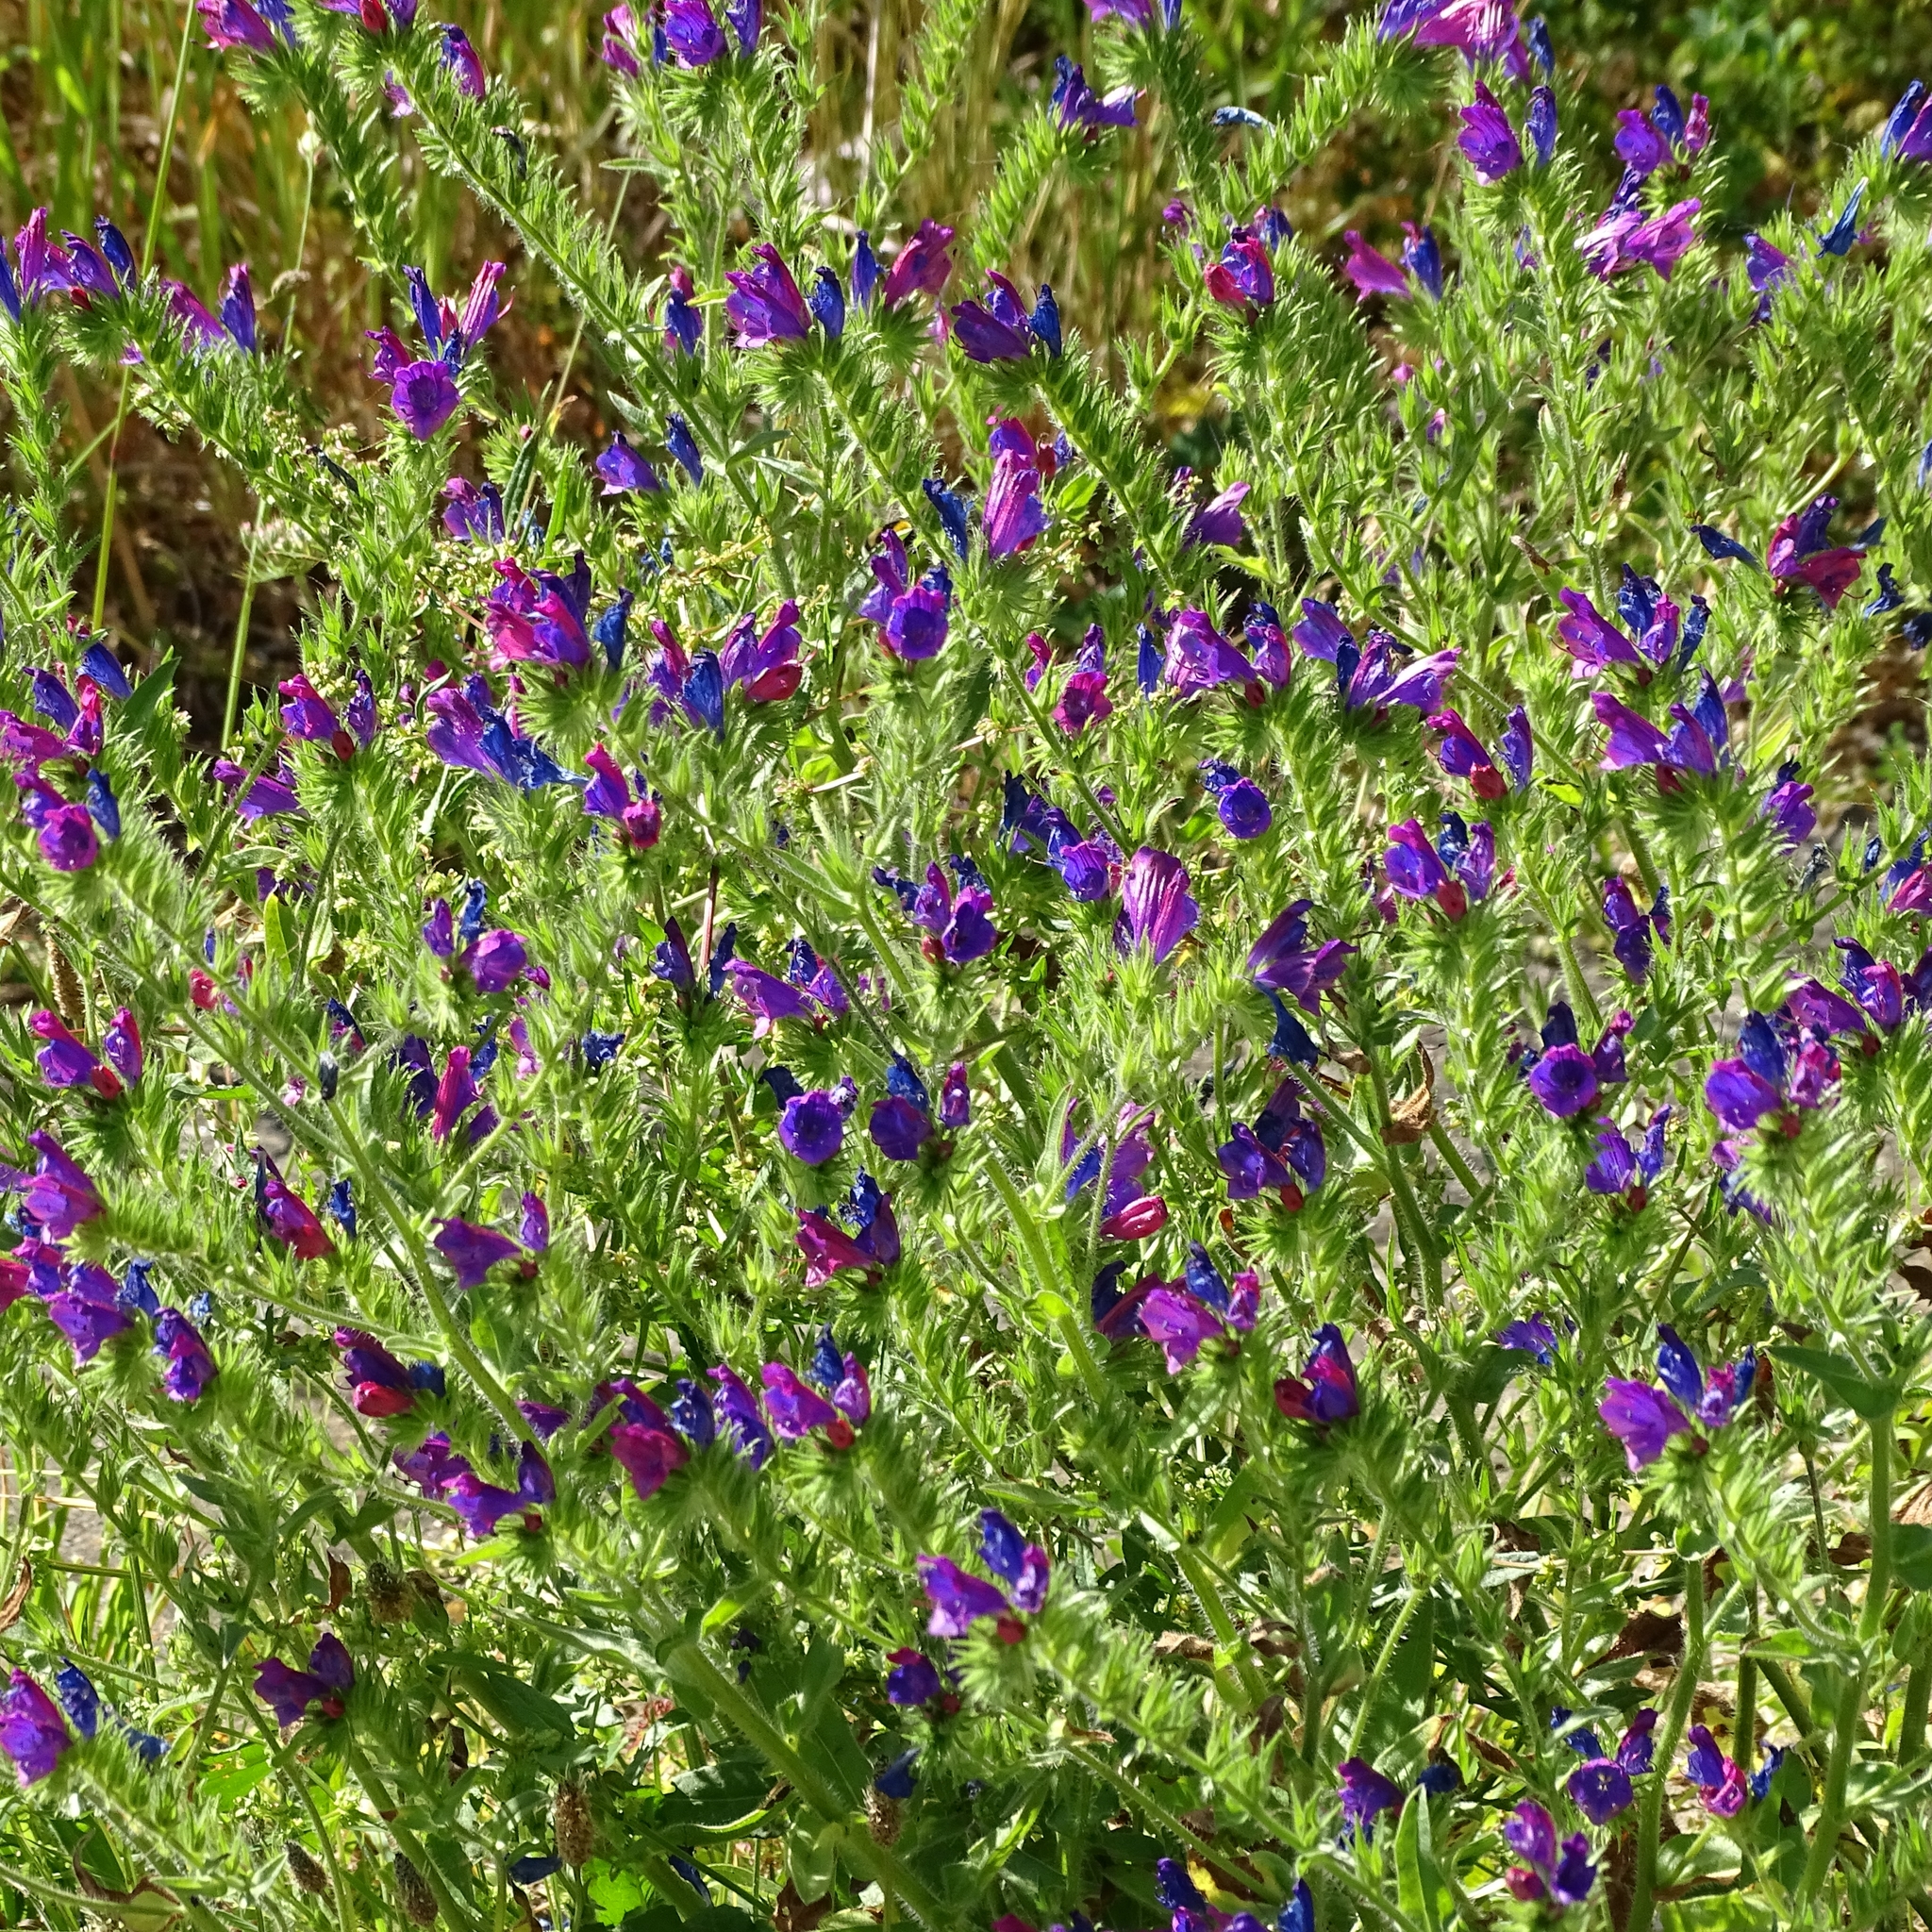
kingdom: Plantae
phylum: Tracheophyta
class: Magnoliopsida
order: Boraginales
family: Boraginaceae
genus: Echium
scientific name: Echium plantagineum
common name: Purple viper's-bugloss
